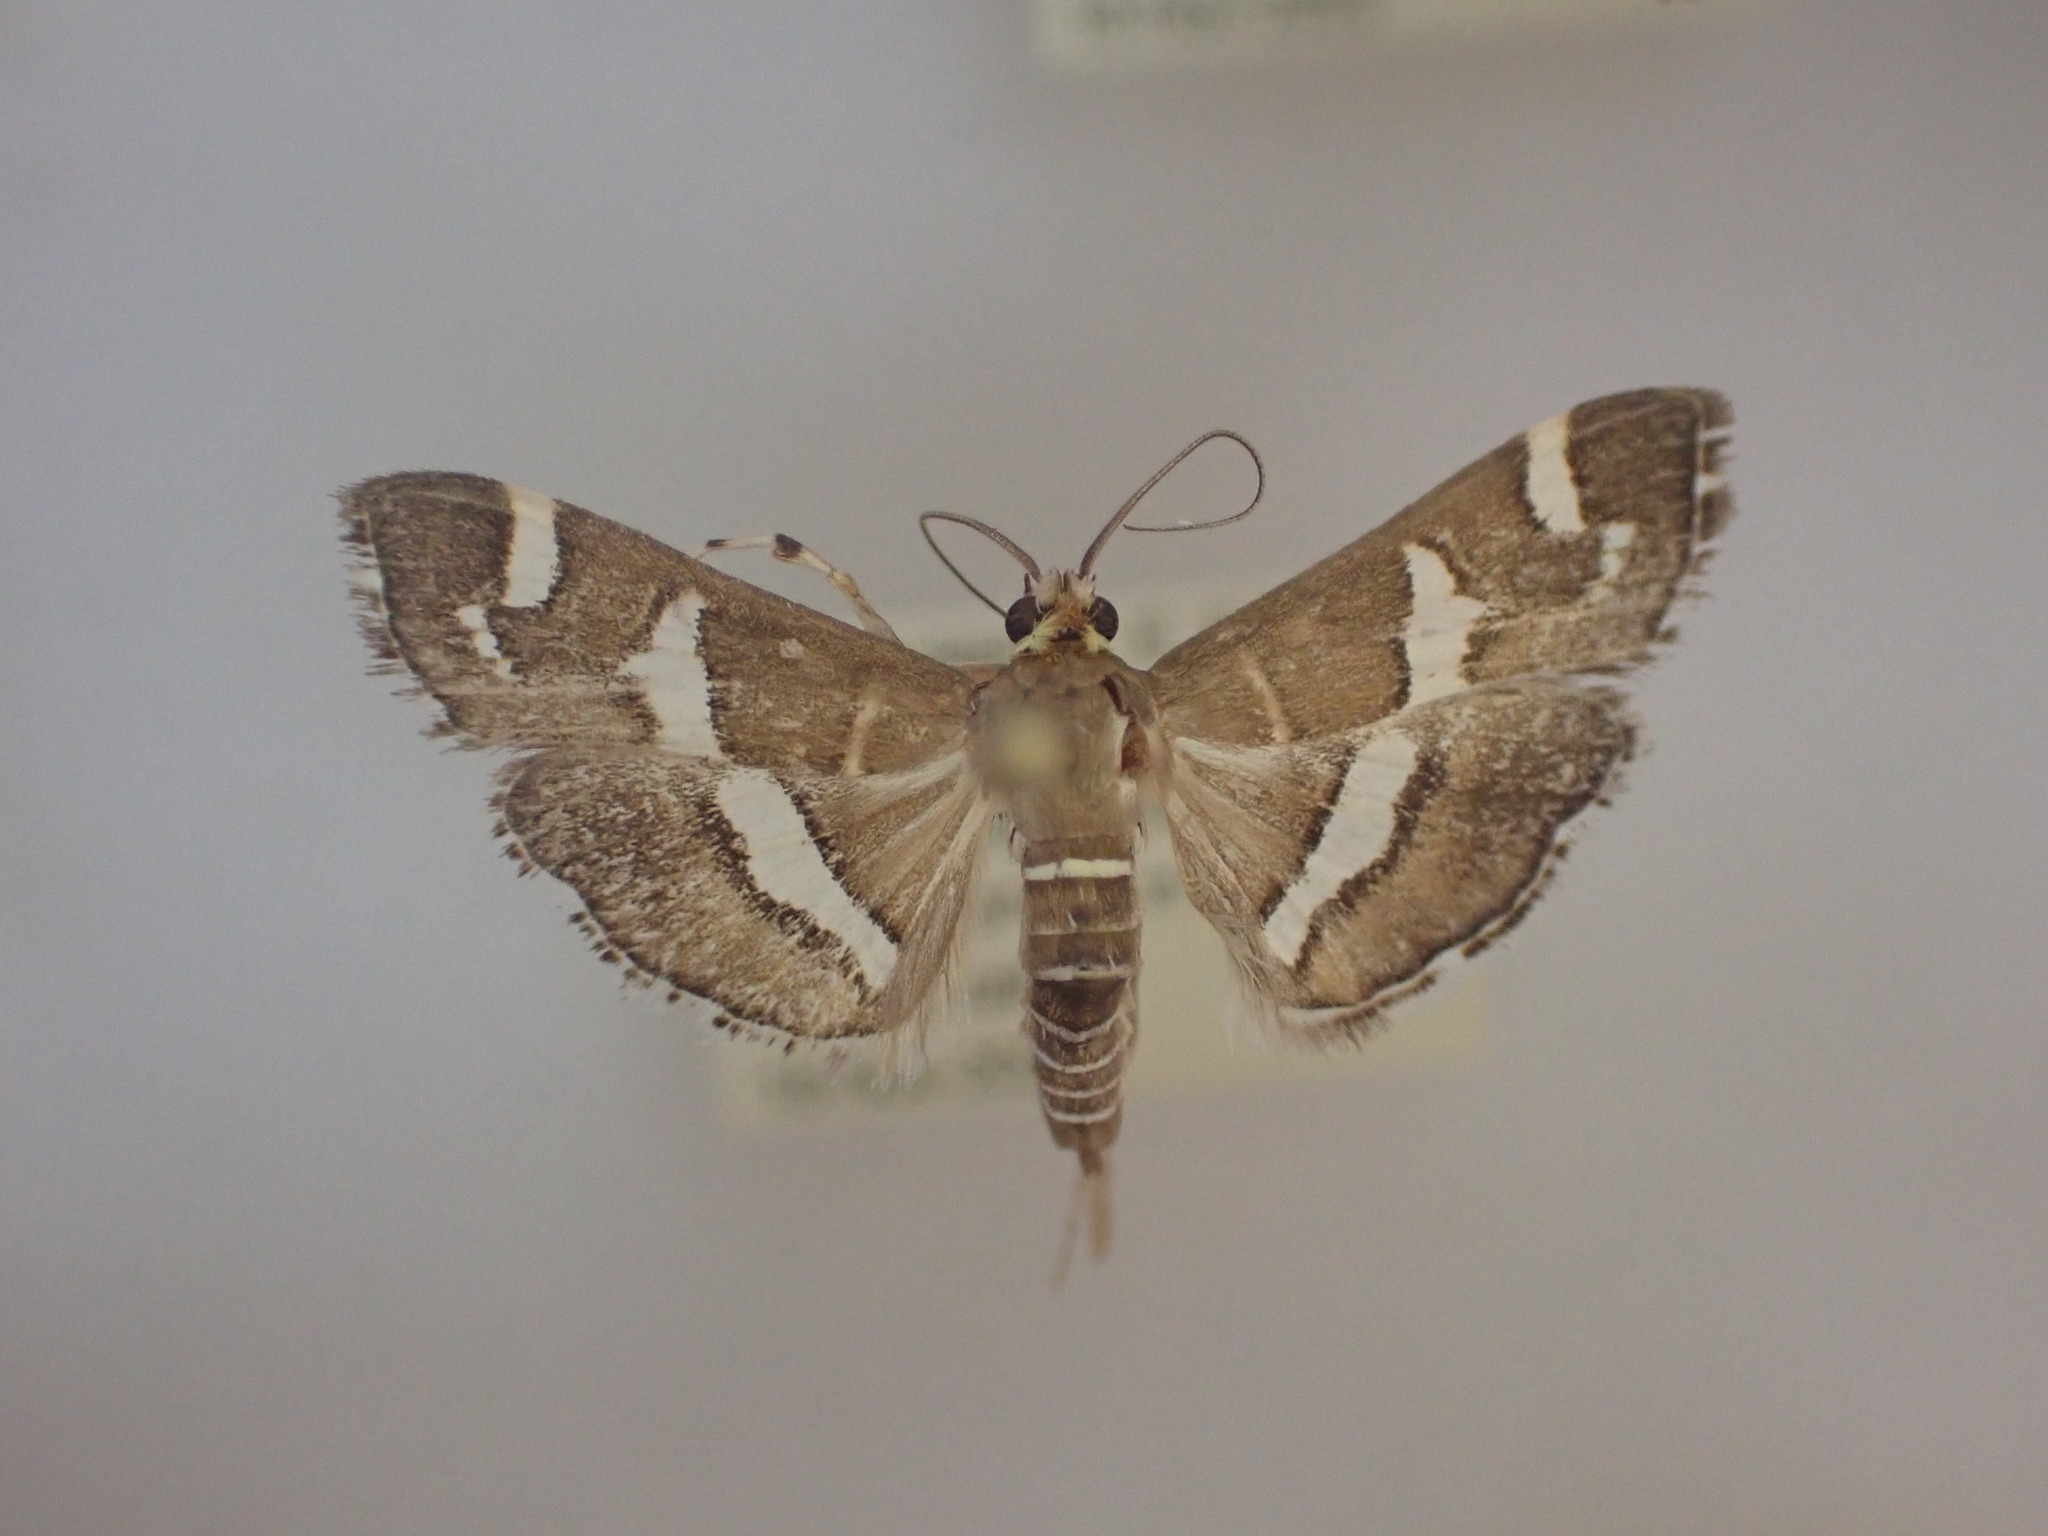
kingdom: Animalia
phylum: Arthropoda
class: Insecta
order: Lepidoptera
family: Crambidae
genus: Spoladea
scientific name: Spoladea recurvalis
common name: Beet webworm moth
